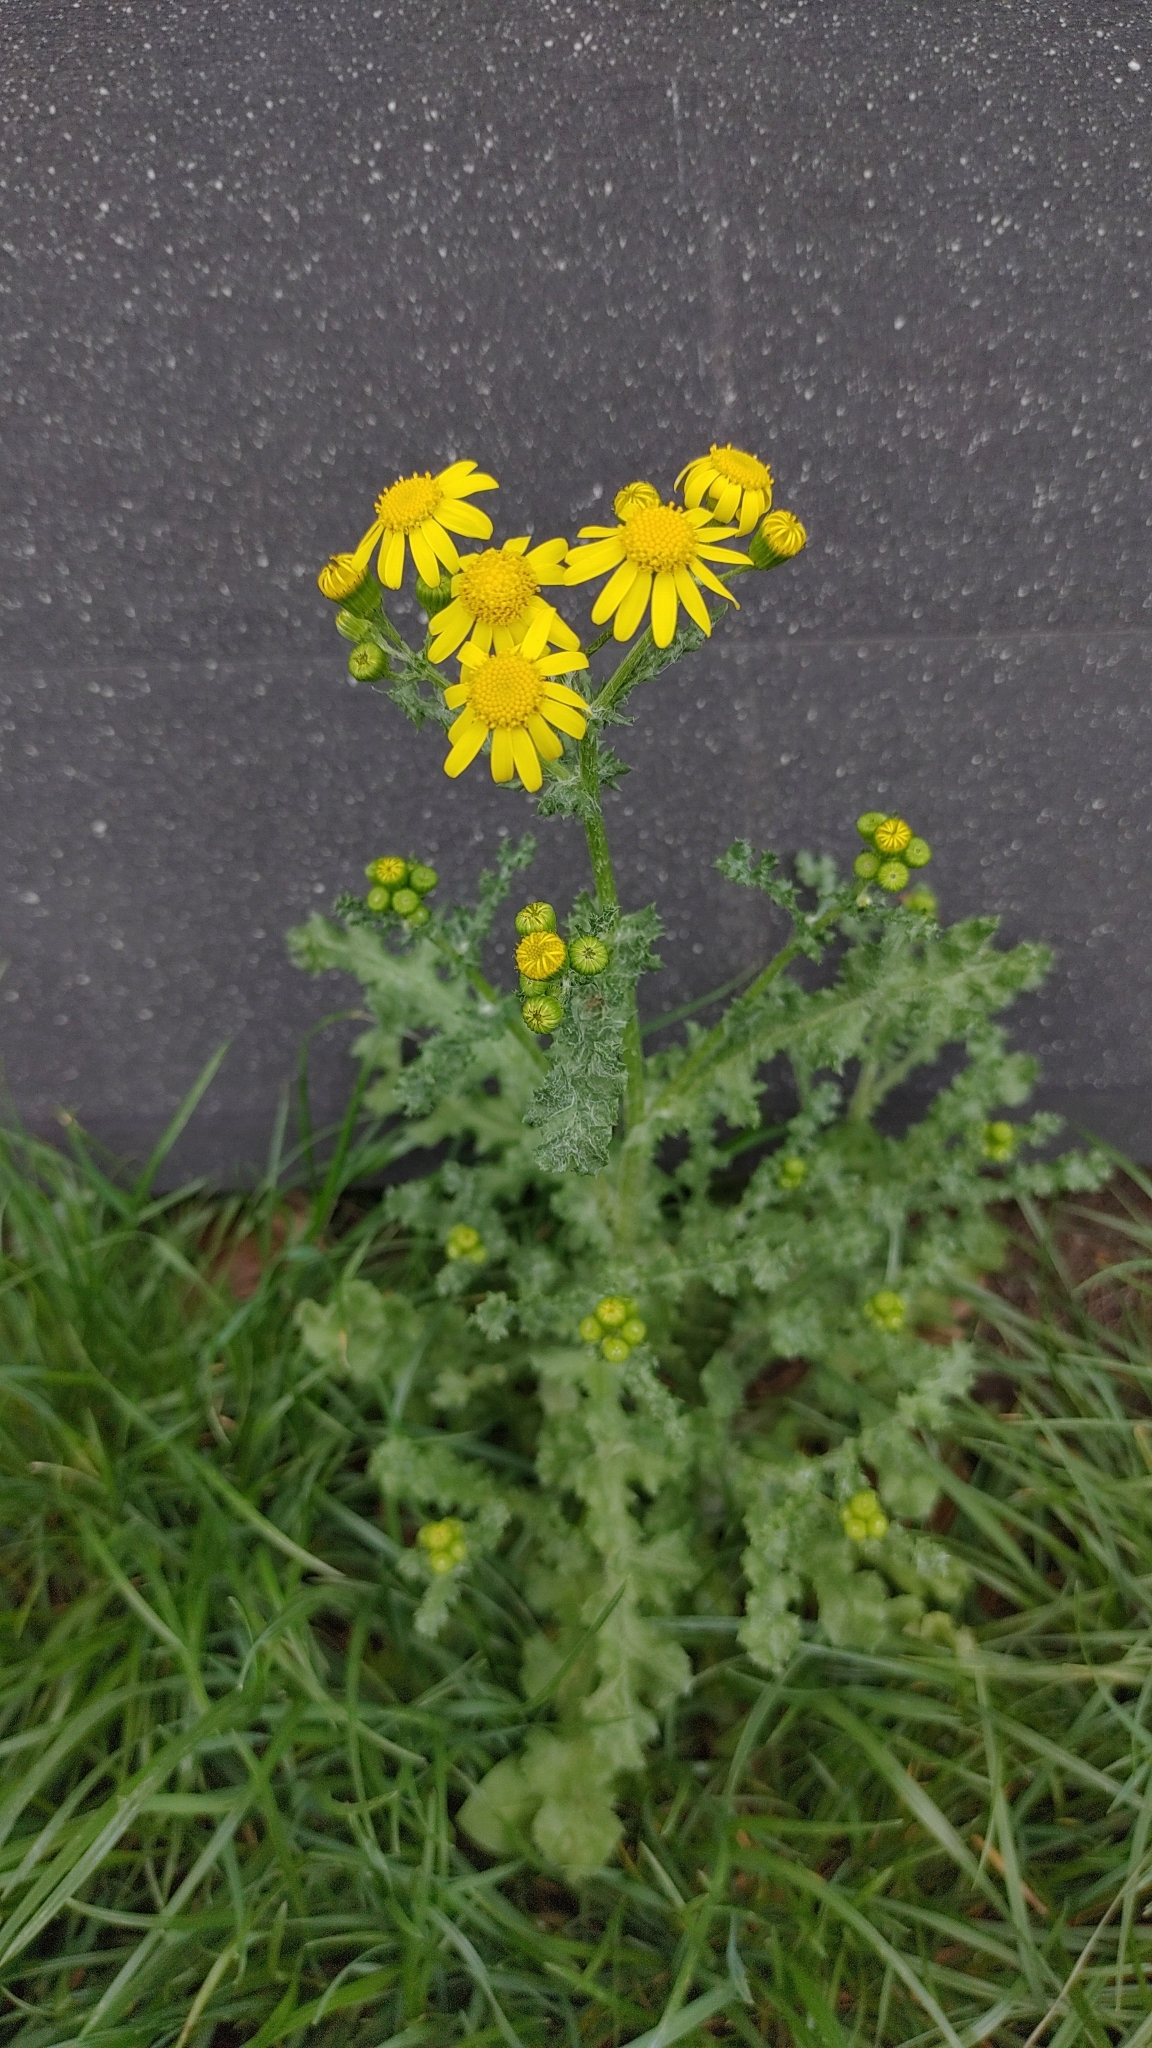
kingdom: Plantae
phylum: Tracheophyta
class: Magnoliopsida
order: Asterales
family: Asteraceae
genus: Senecio
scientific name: Senecio vernalis
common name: Eastern groundsel
